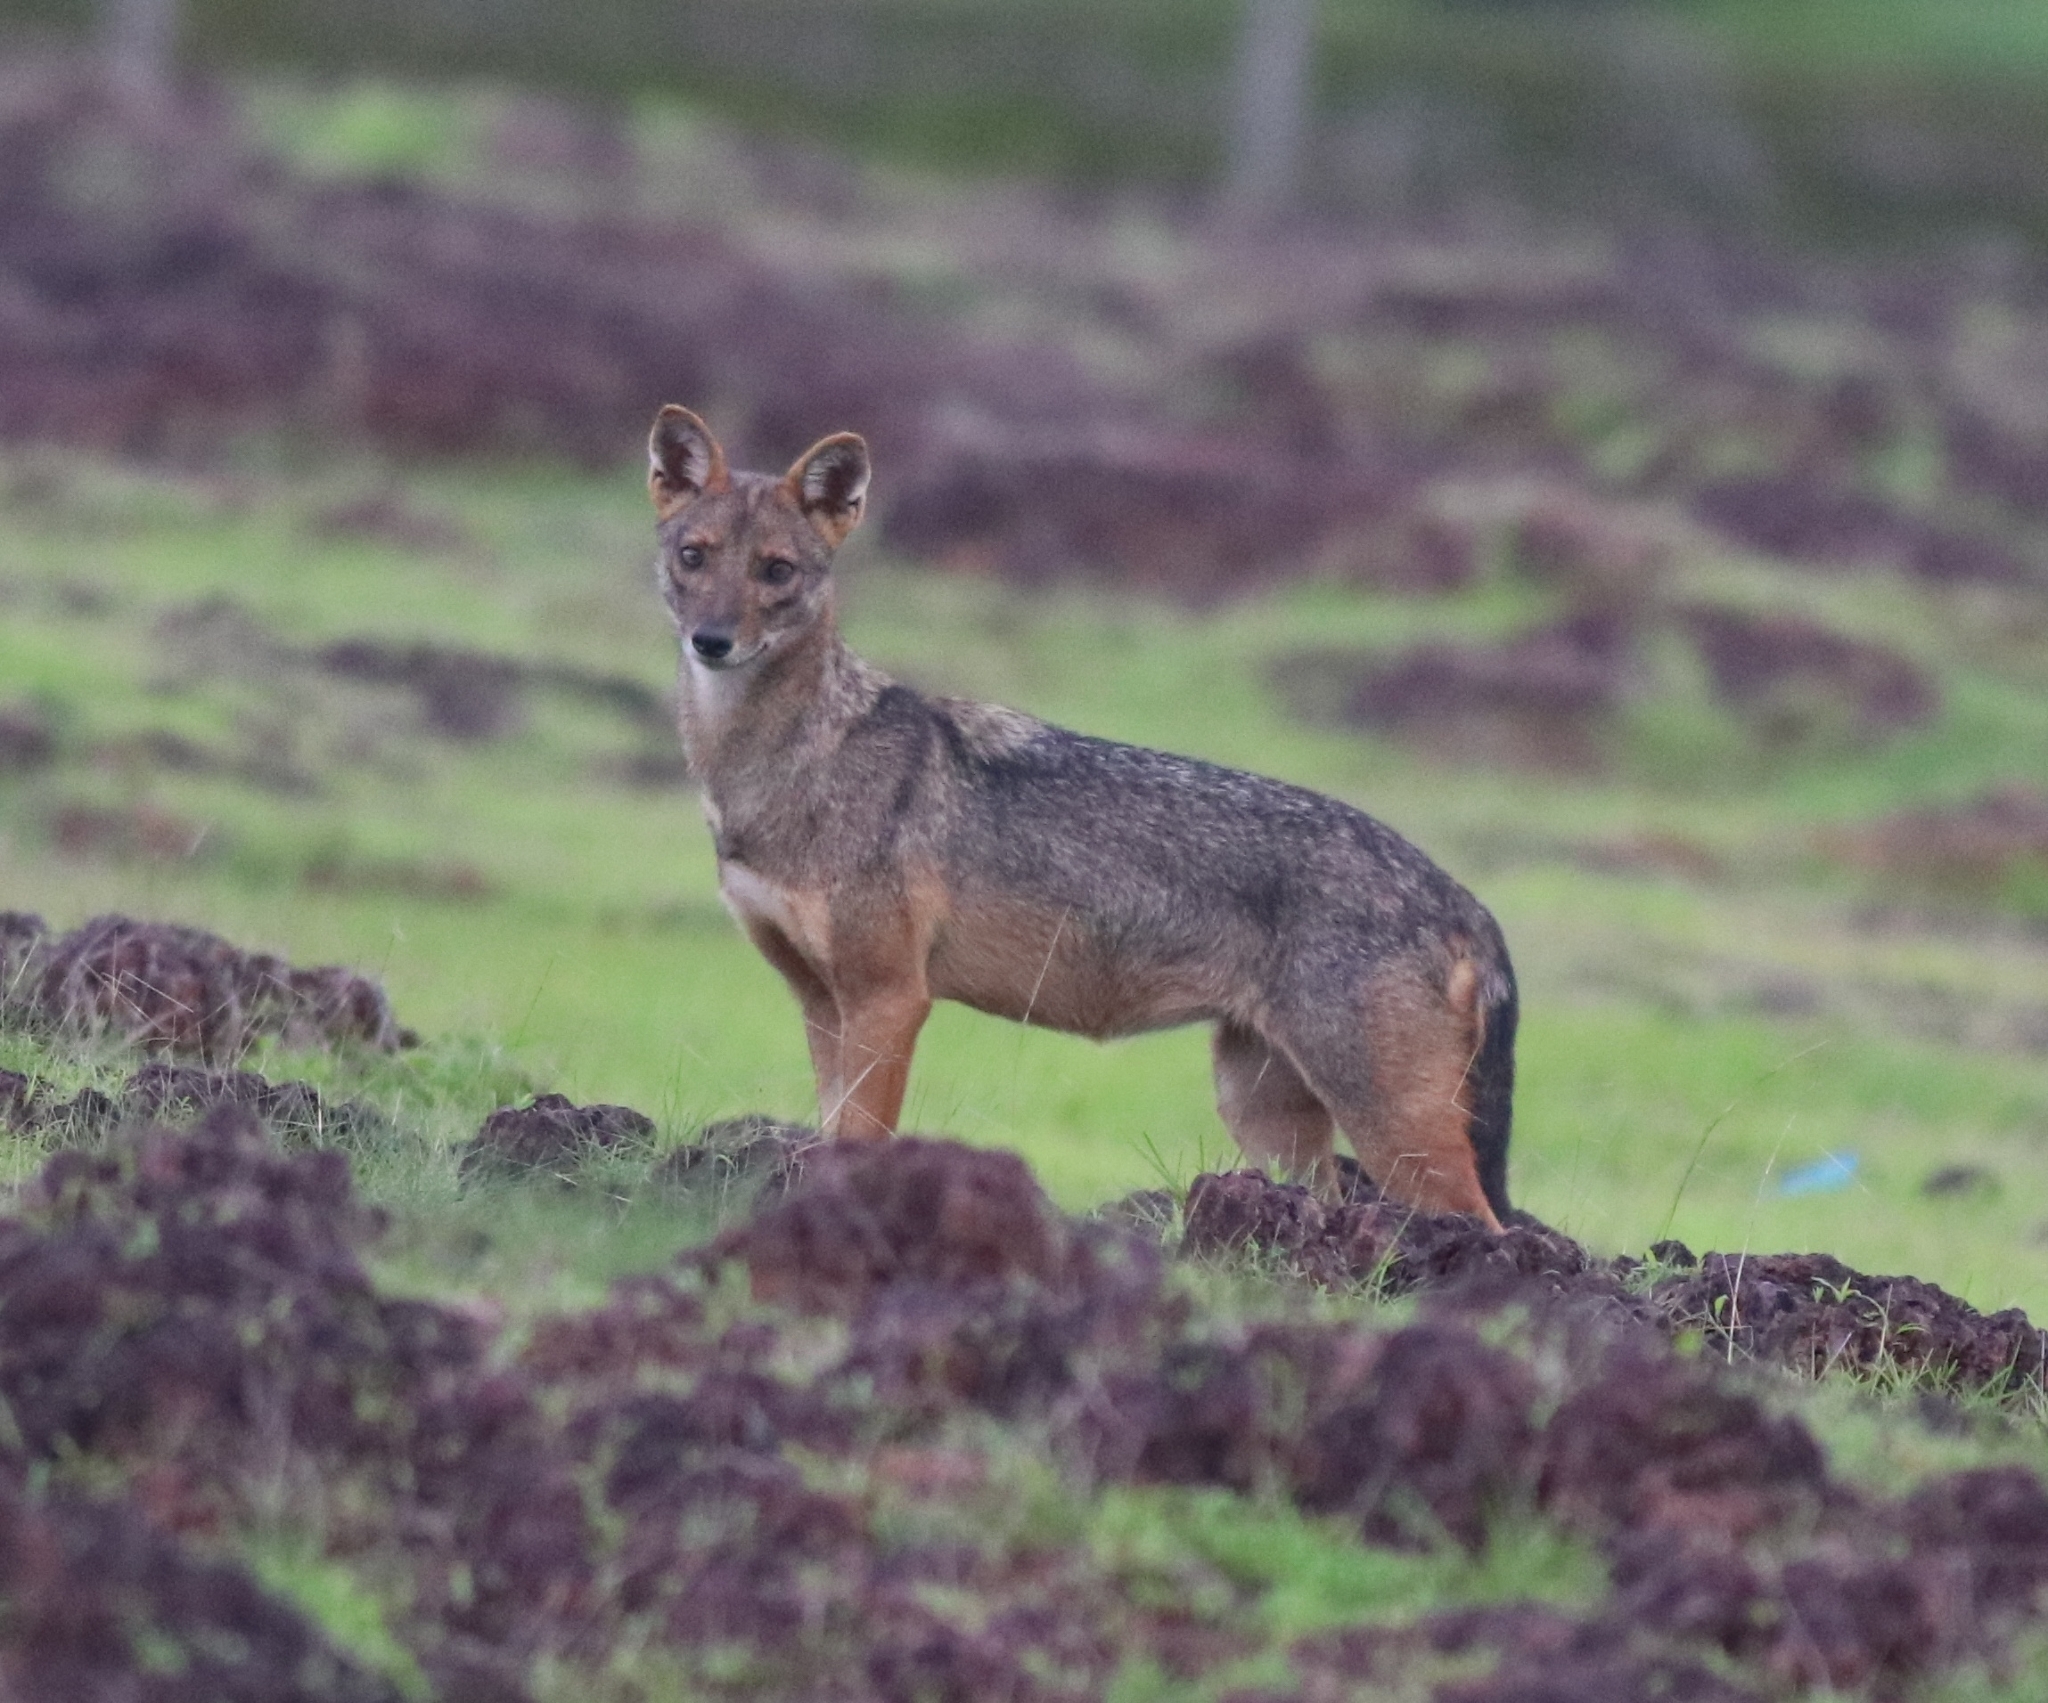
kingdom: Animalia
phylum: Chordata
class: Mammalia
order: Carnivora
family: Canidae
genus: Canis
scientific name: Canis aureus
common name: Golden jackal
